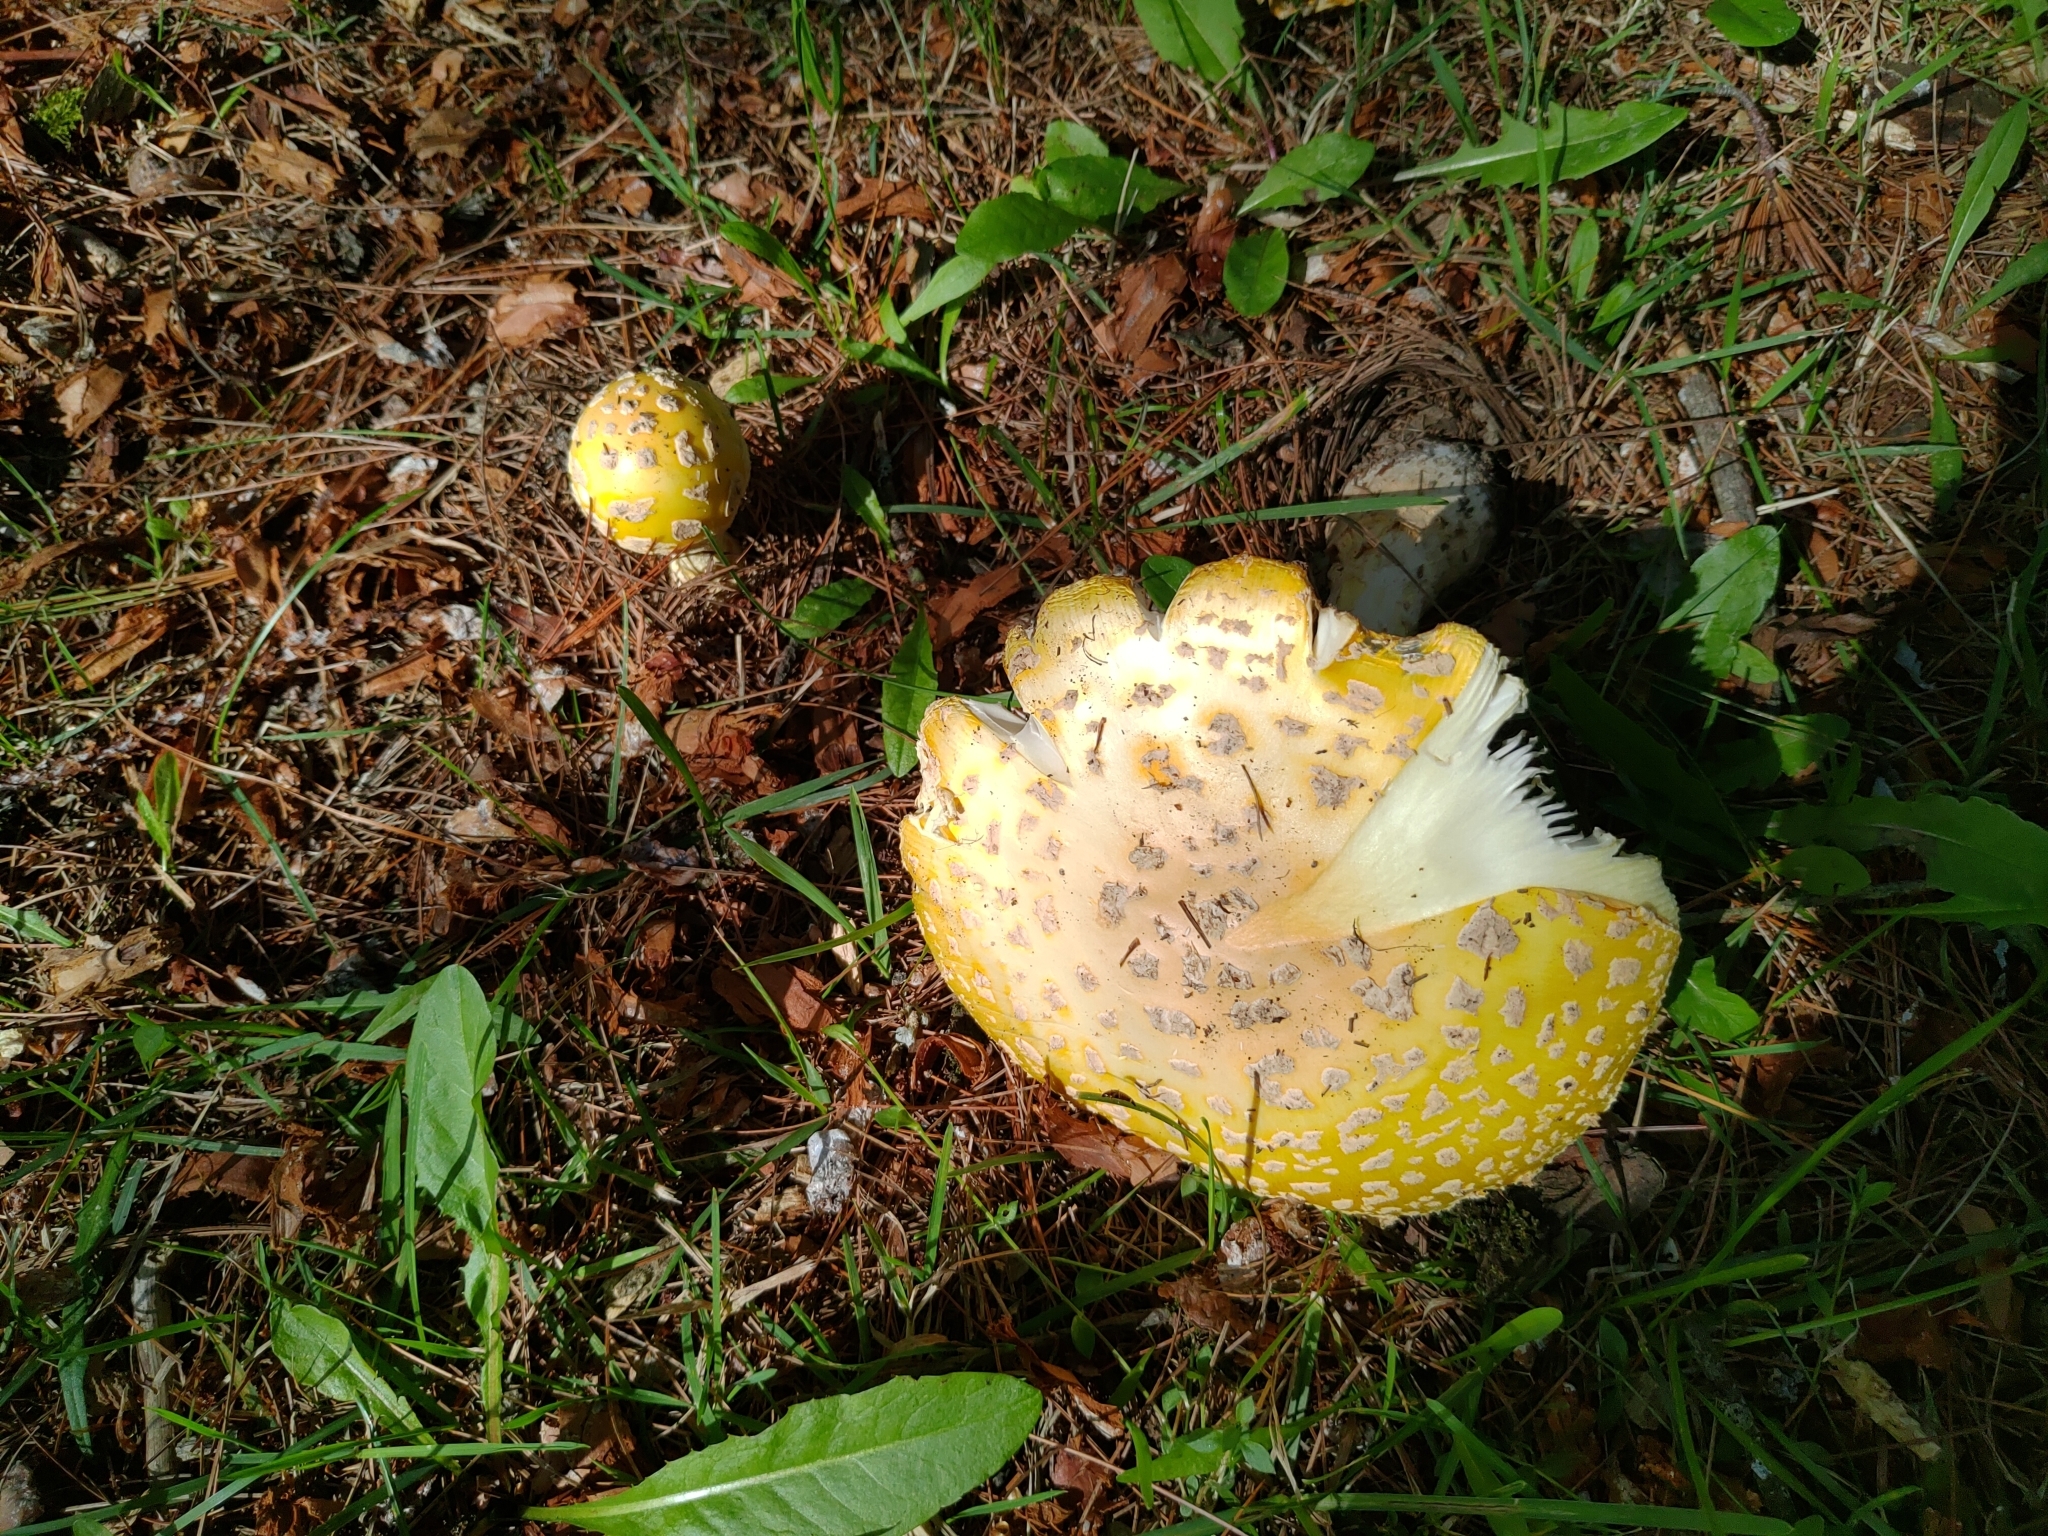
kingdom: Fungi
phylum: Basidiomycota
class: Agaricomycetes
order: Agaricales
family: Amanitaceae
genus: Amanita
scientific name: Amanita muscaria
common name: Fly agaric
